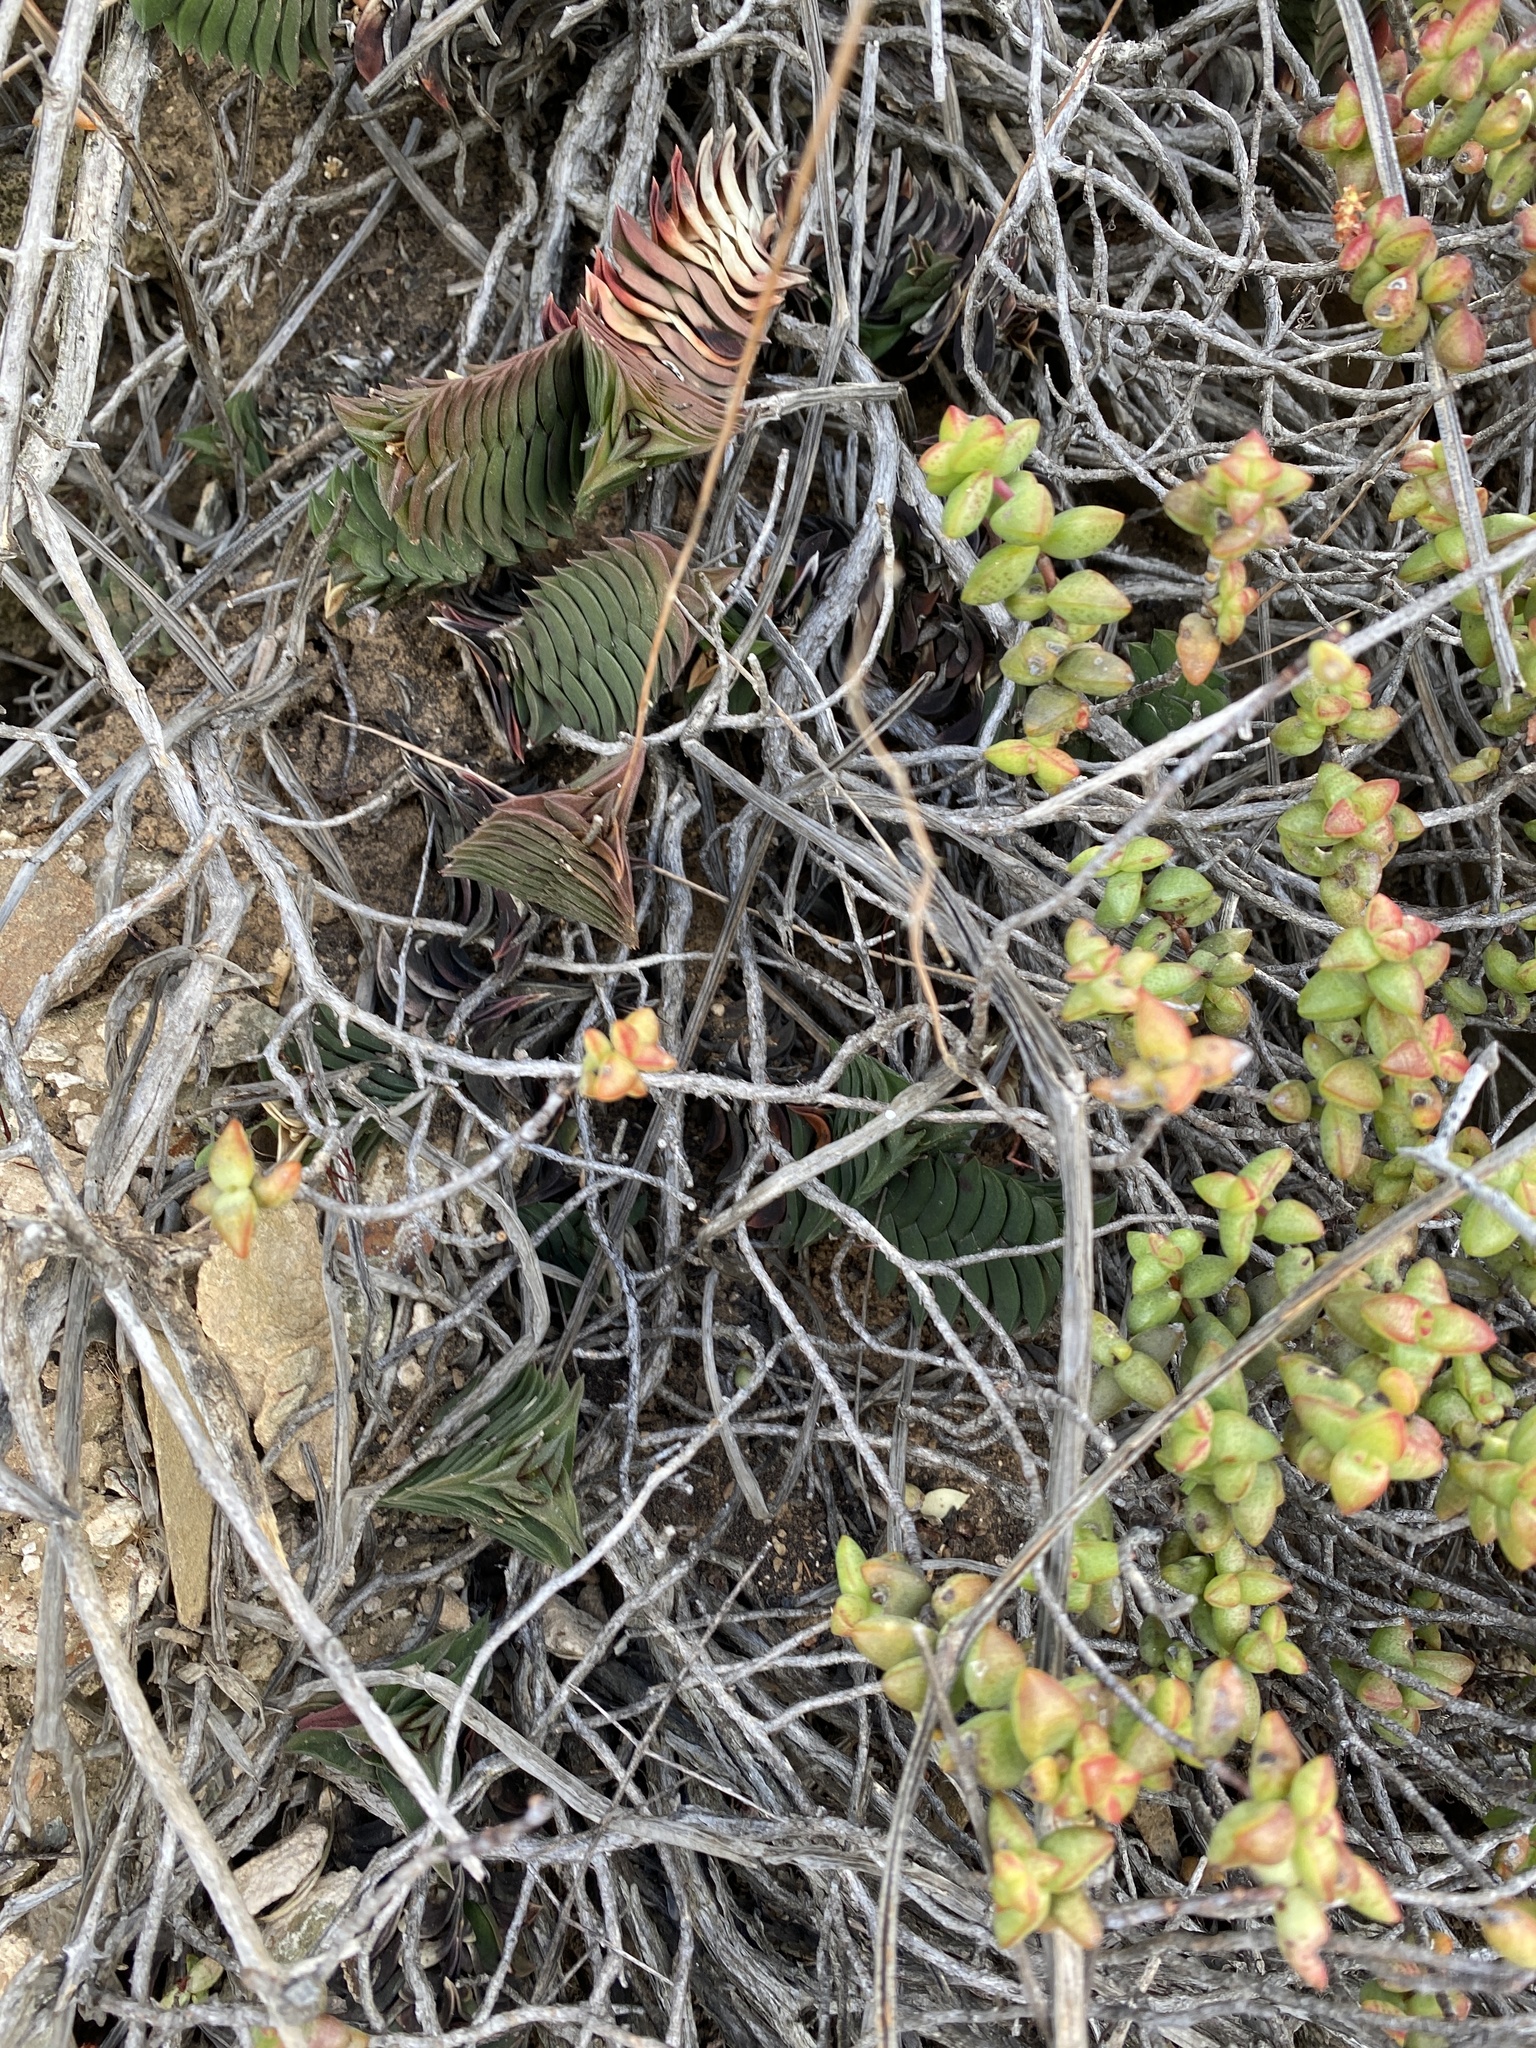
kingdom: Plantae
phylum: Tracheophyta
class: Liliopsida
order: Asparagales
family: Asphodelaceae
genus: Haworthiopsis
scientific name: Haworthiopsis viscosa
